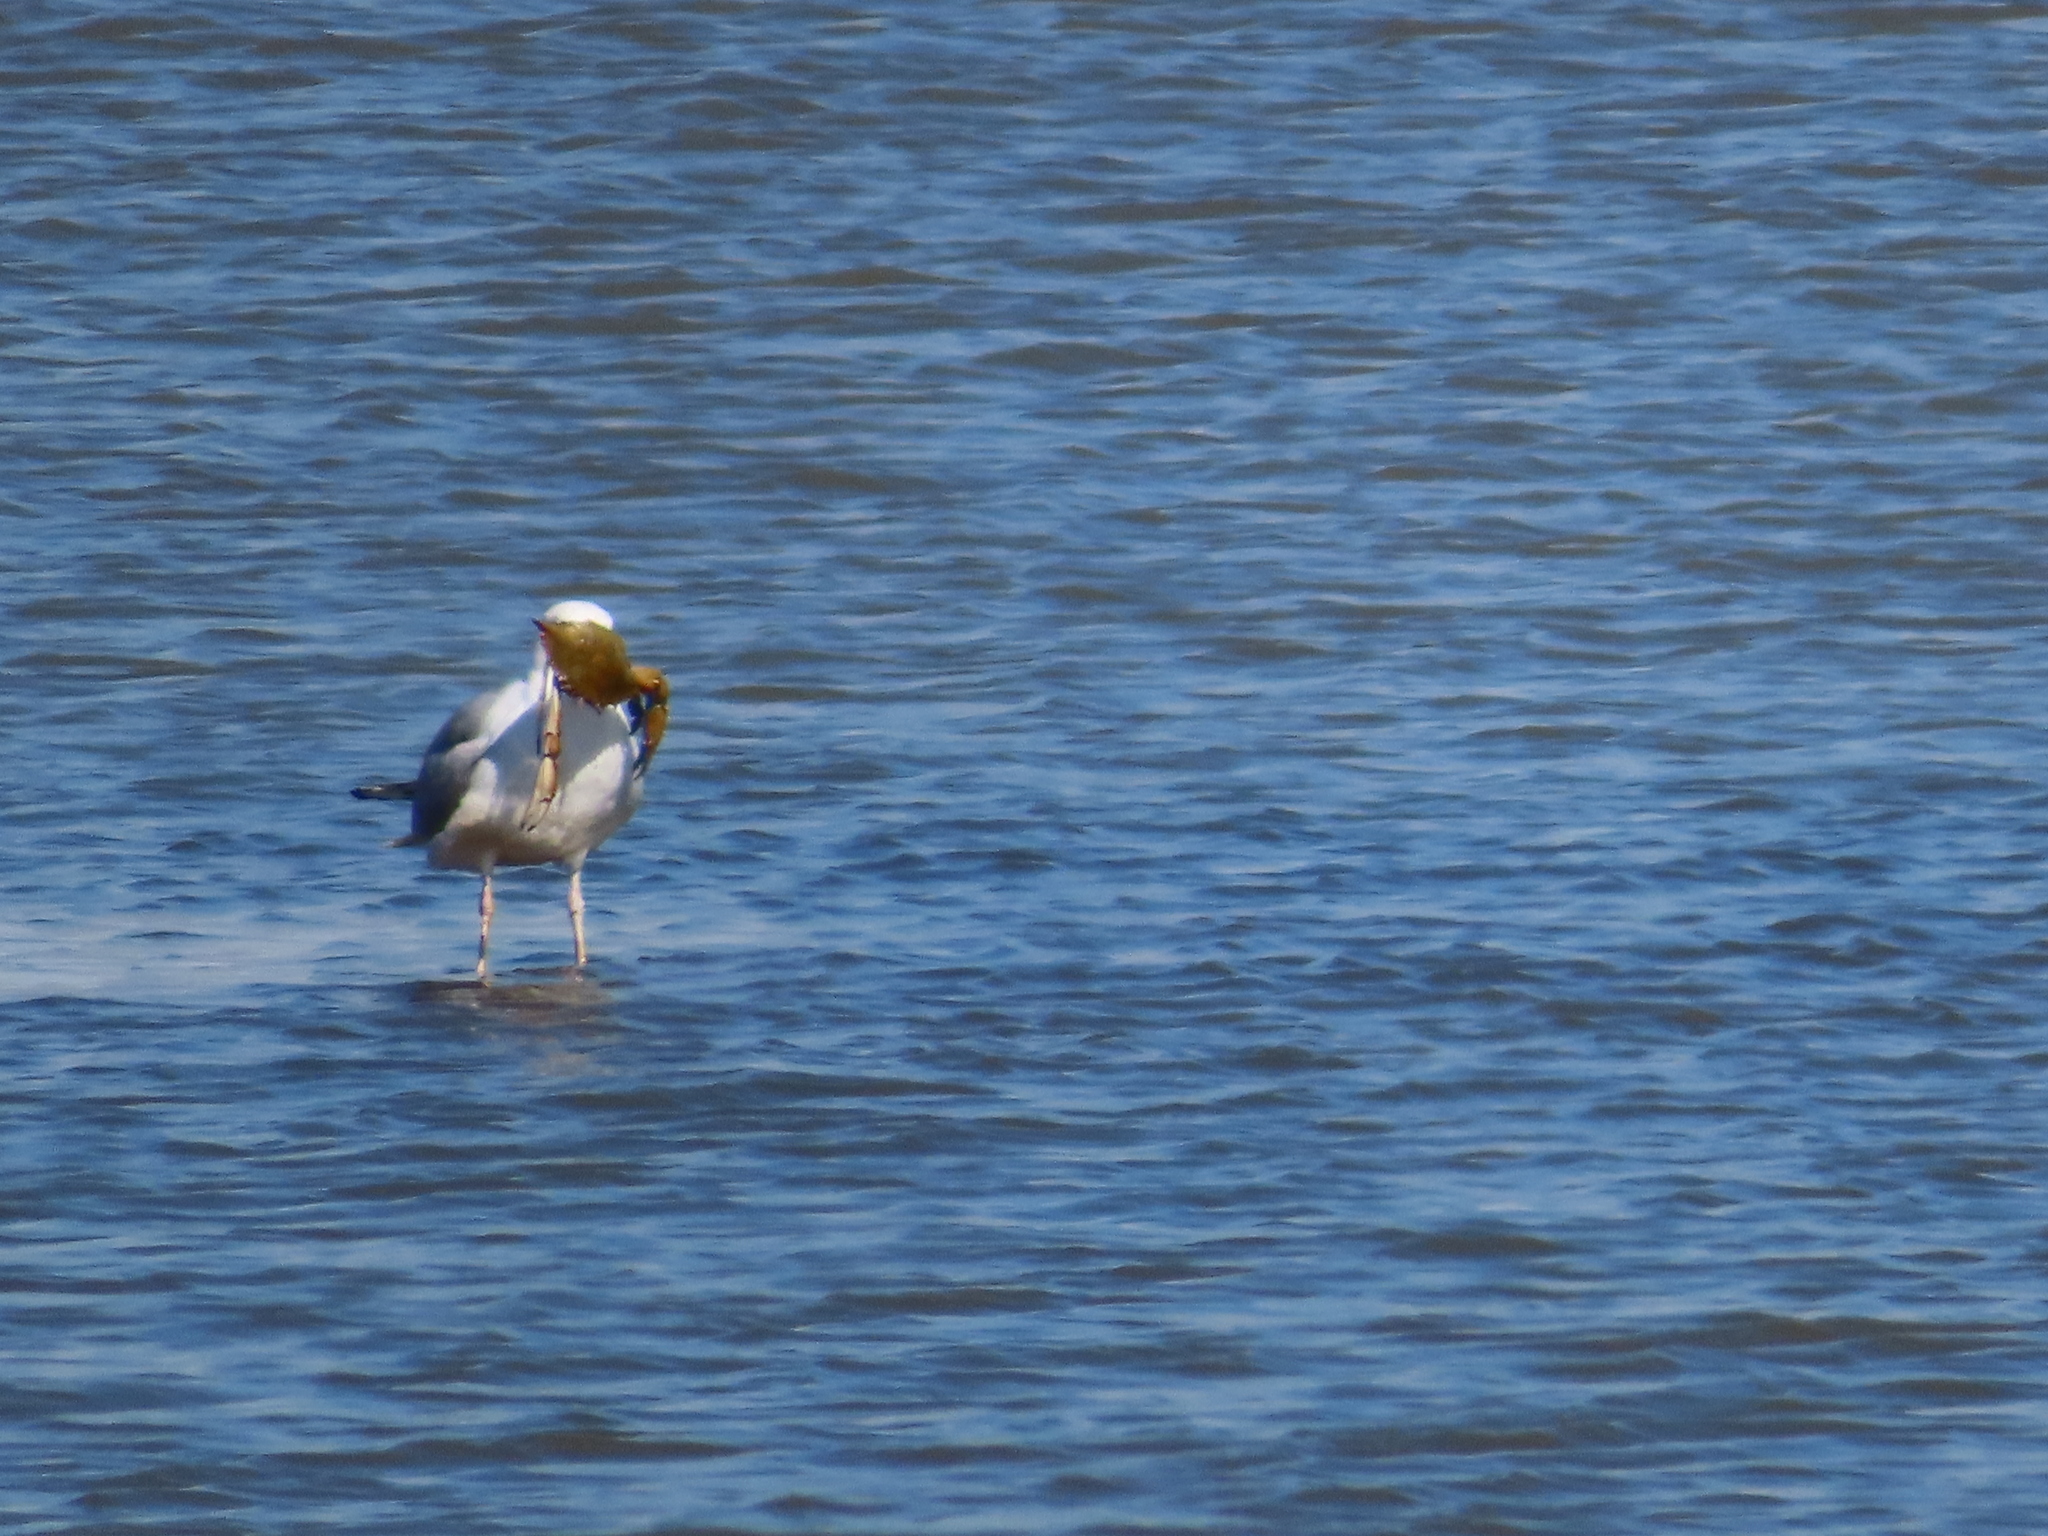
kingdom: Animalia
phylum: Arthropoda
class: Malacostraca
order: Decapoda
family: Portunidae
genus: Callinectes
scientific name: Callinectes sapidus
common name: Blue crab
